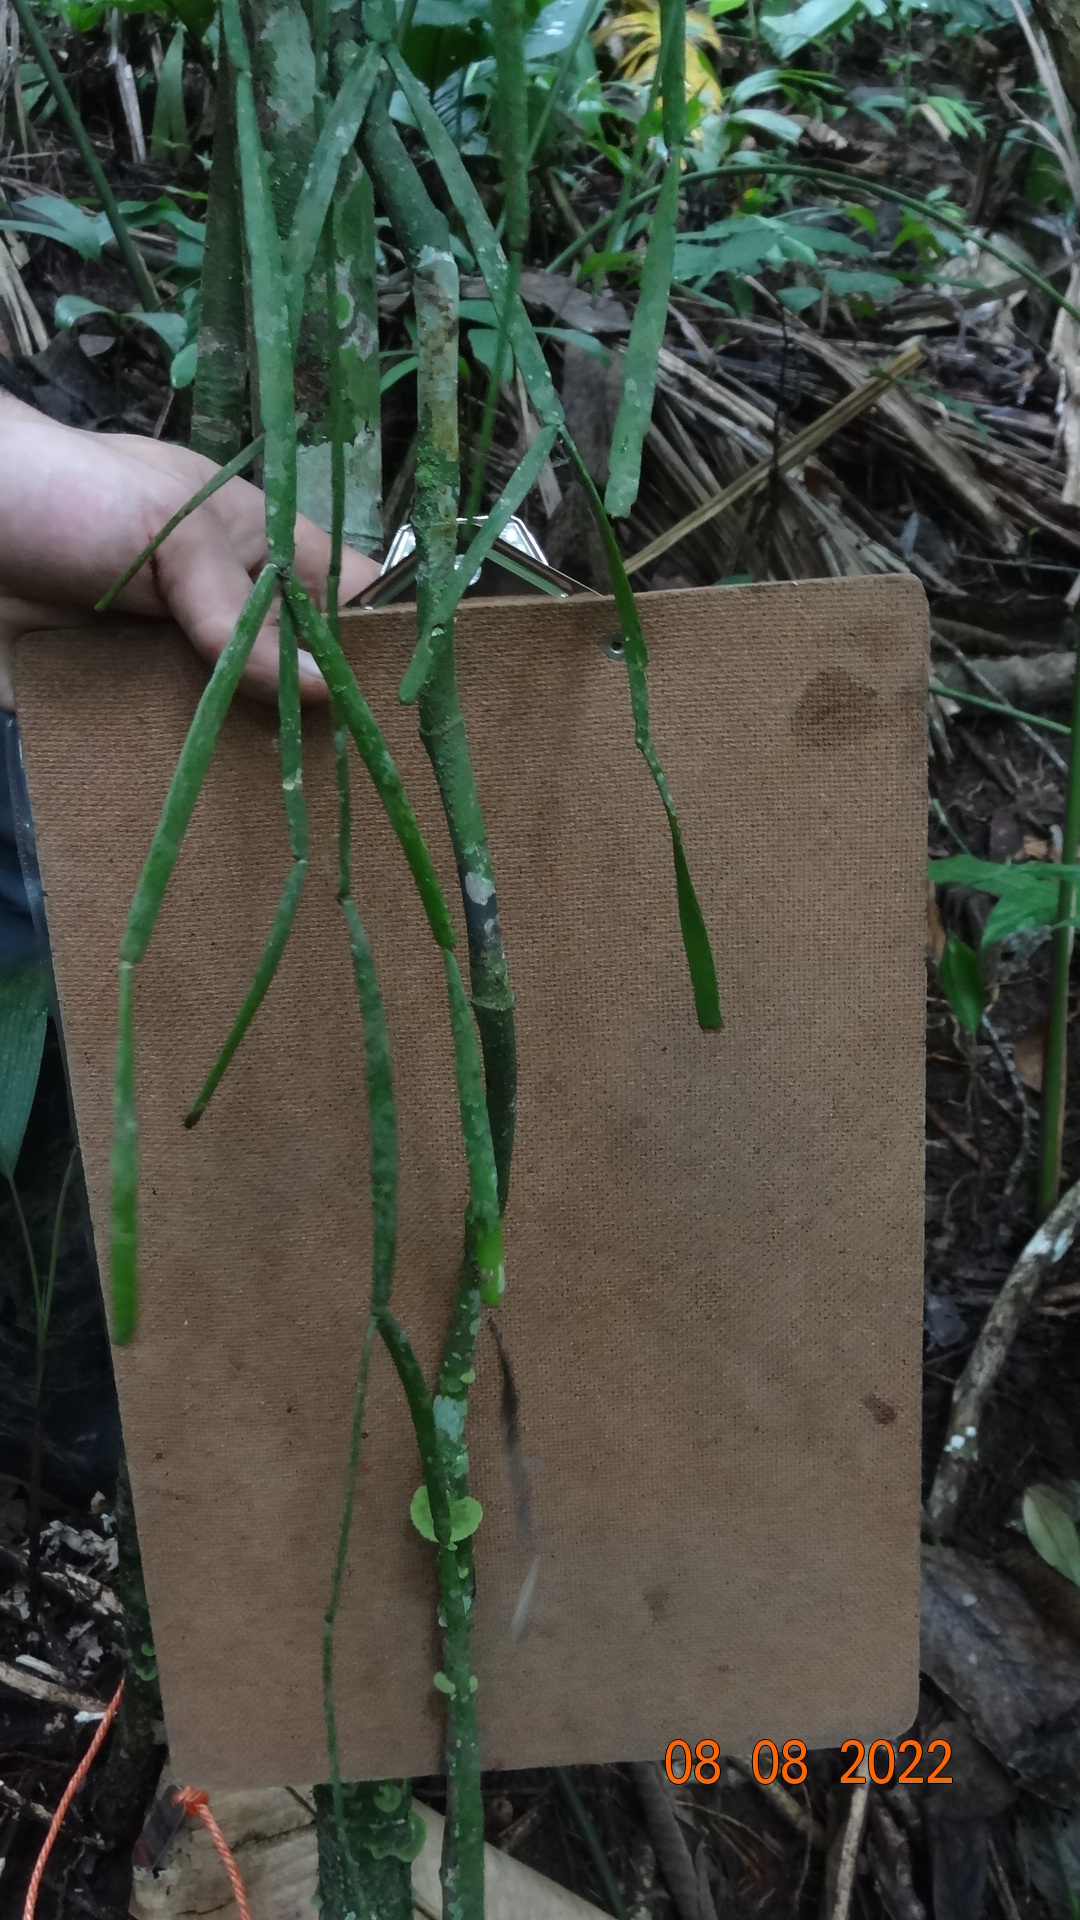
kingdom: Plantae
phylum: Tracheophyta
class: Magnoliopsida
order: Caryophyllales
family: Cactaceae
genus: Rhipsalis
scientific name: Rhipsalis micrantha
